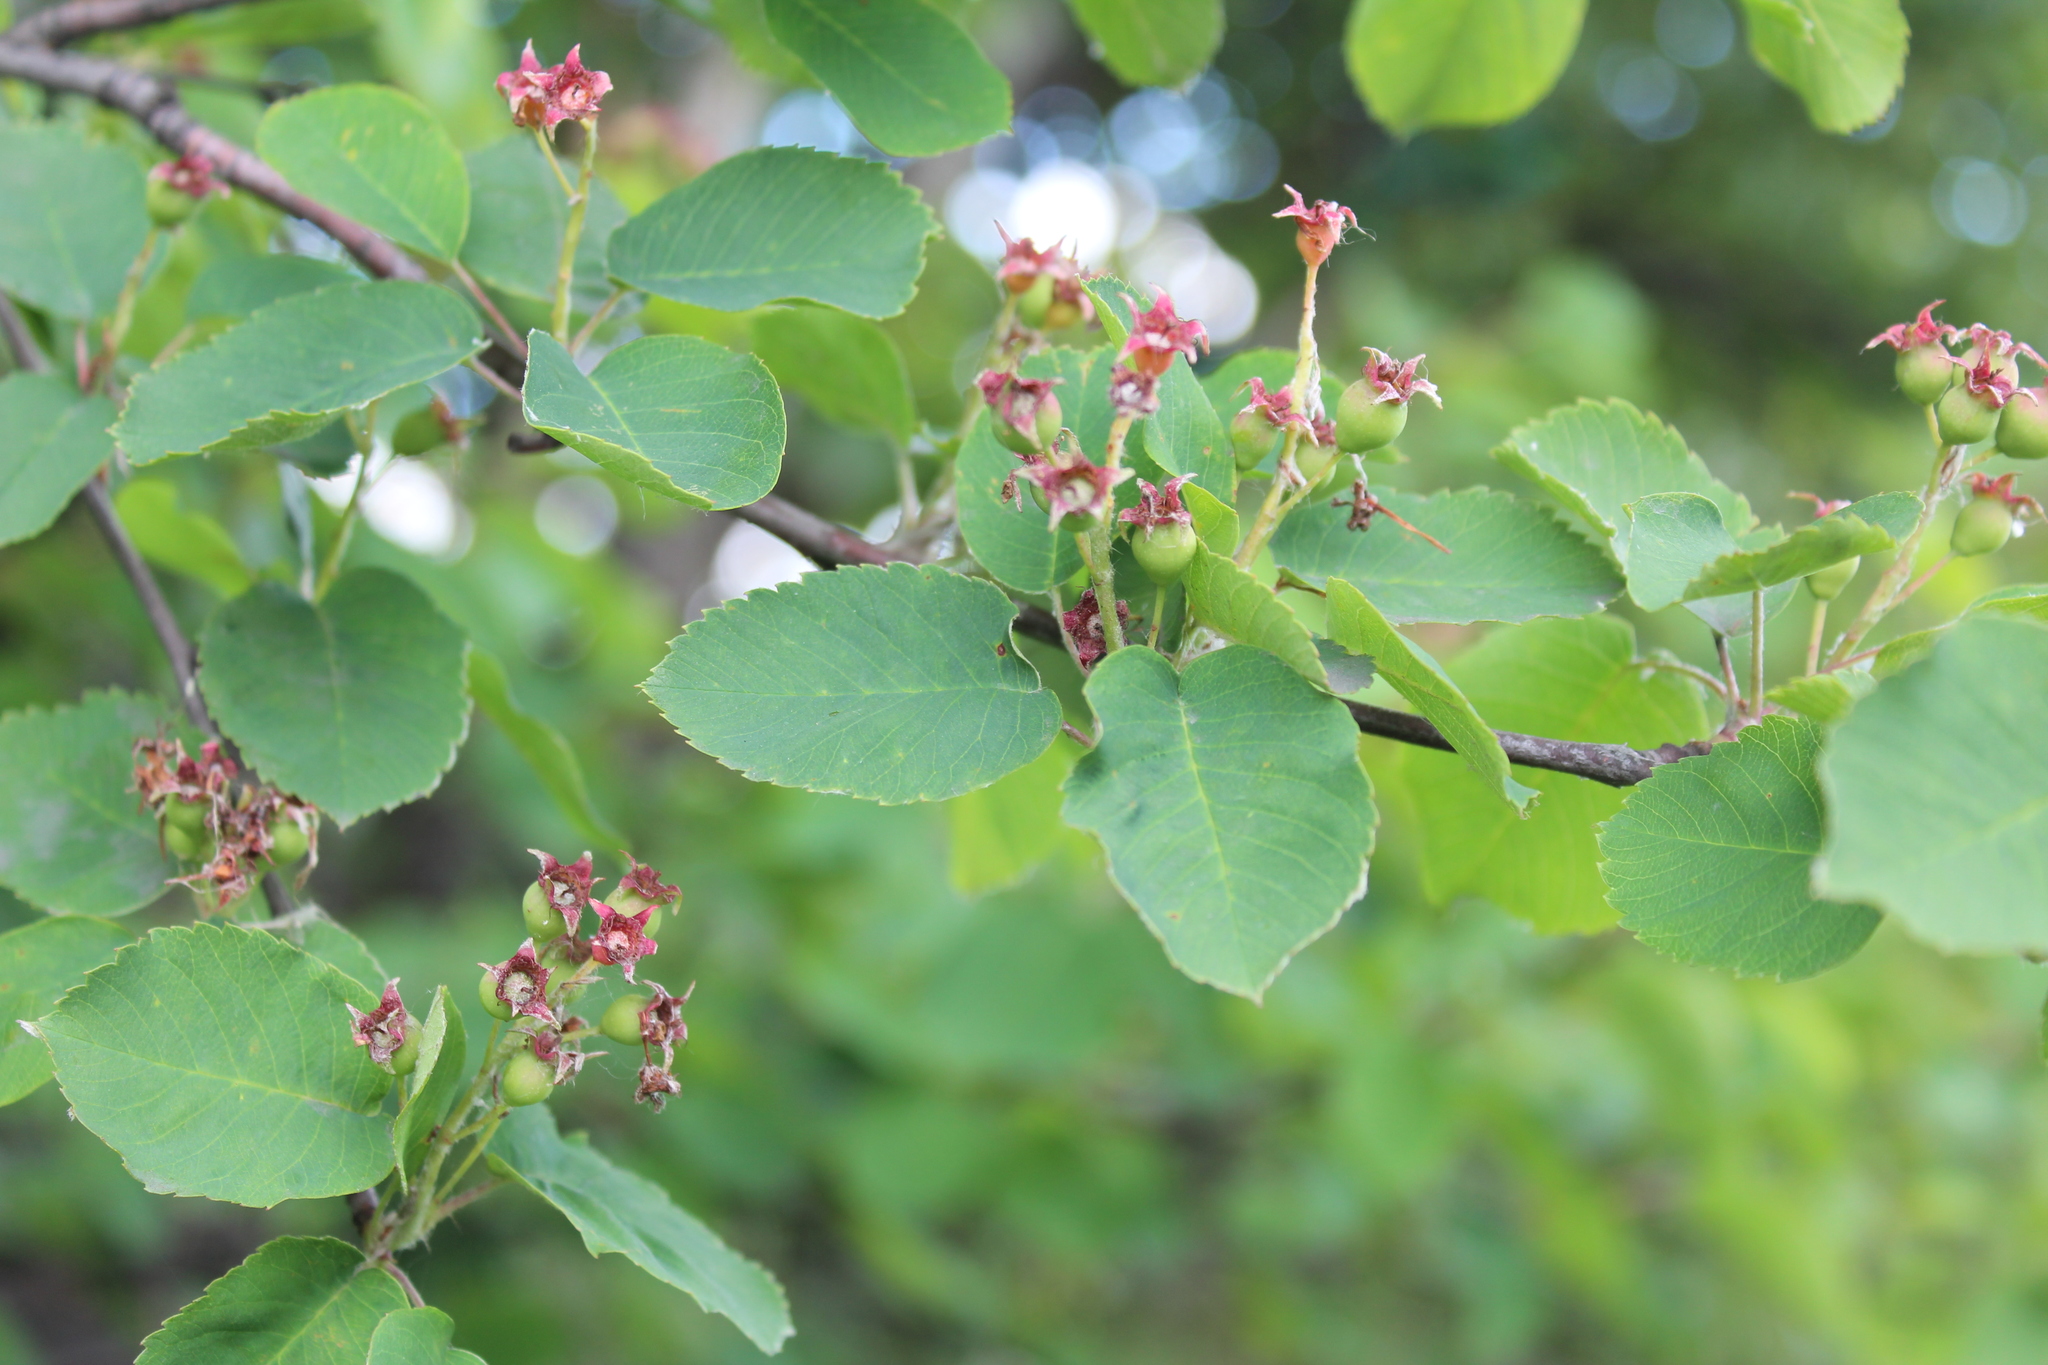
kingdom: Plantae
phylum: Tracheophyta
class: Magnoliopsida
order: Rosales
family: Rosaceae
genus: Amelanchier
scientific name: Amelanchier alnifolia
